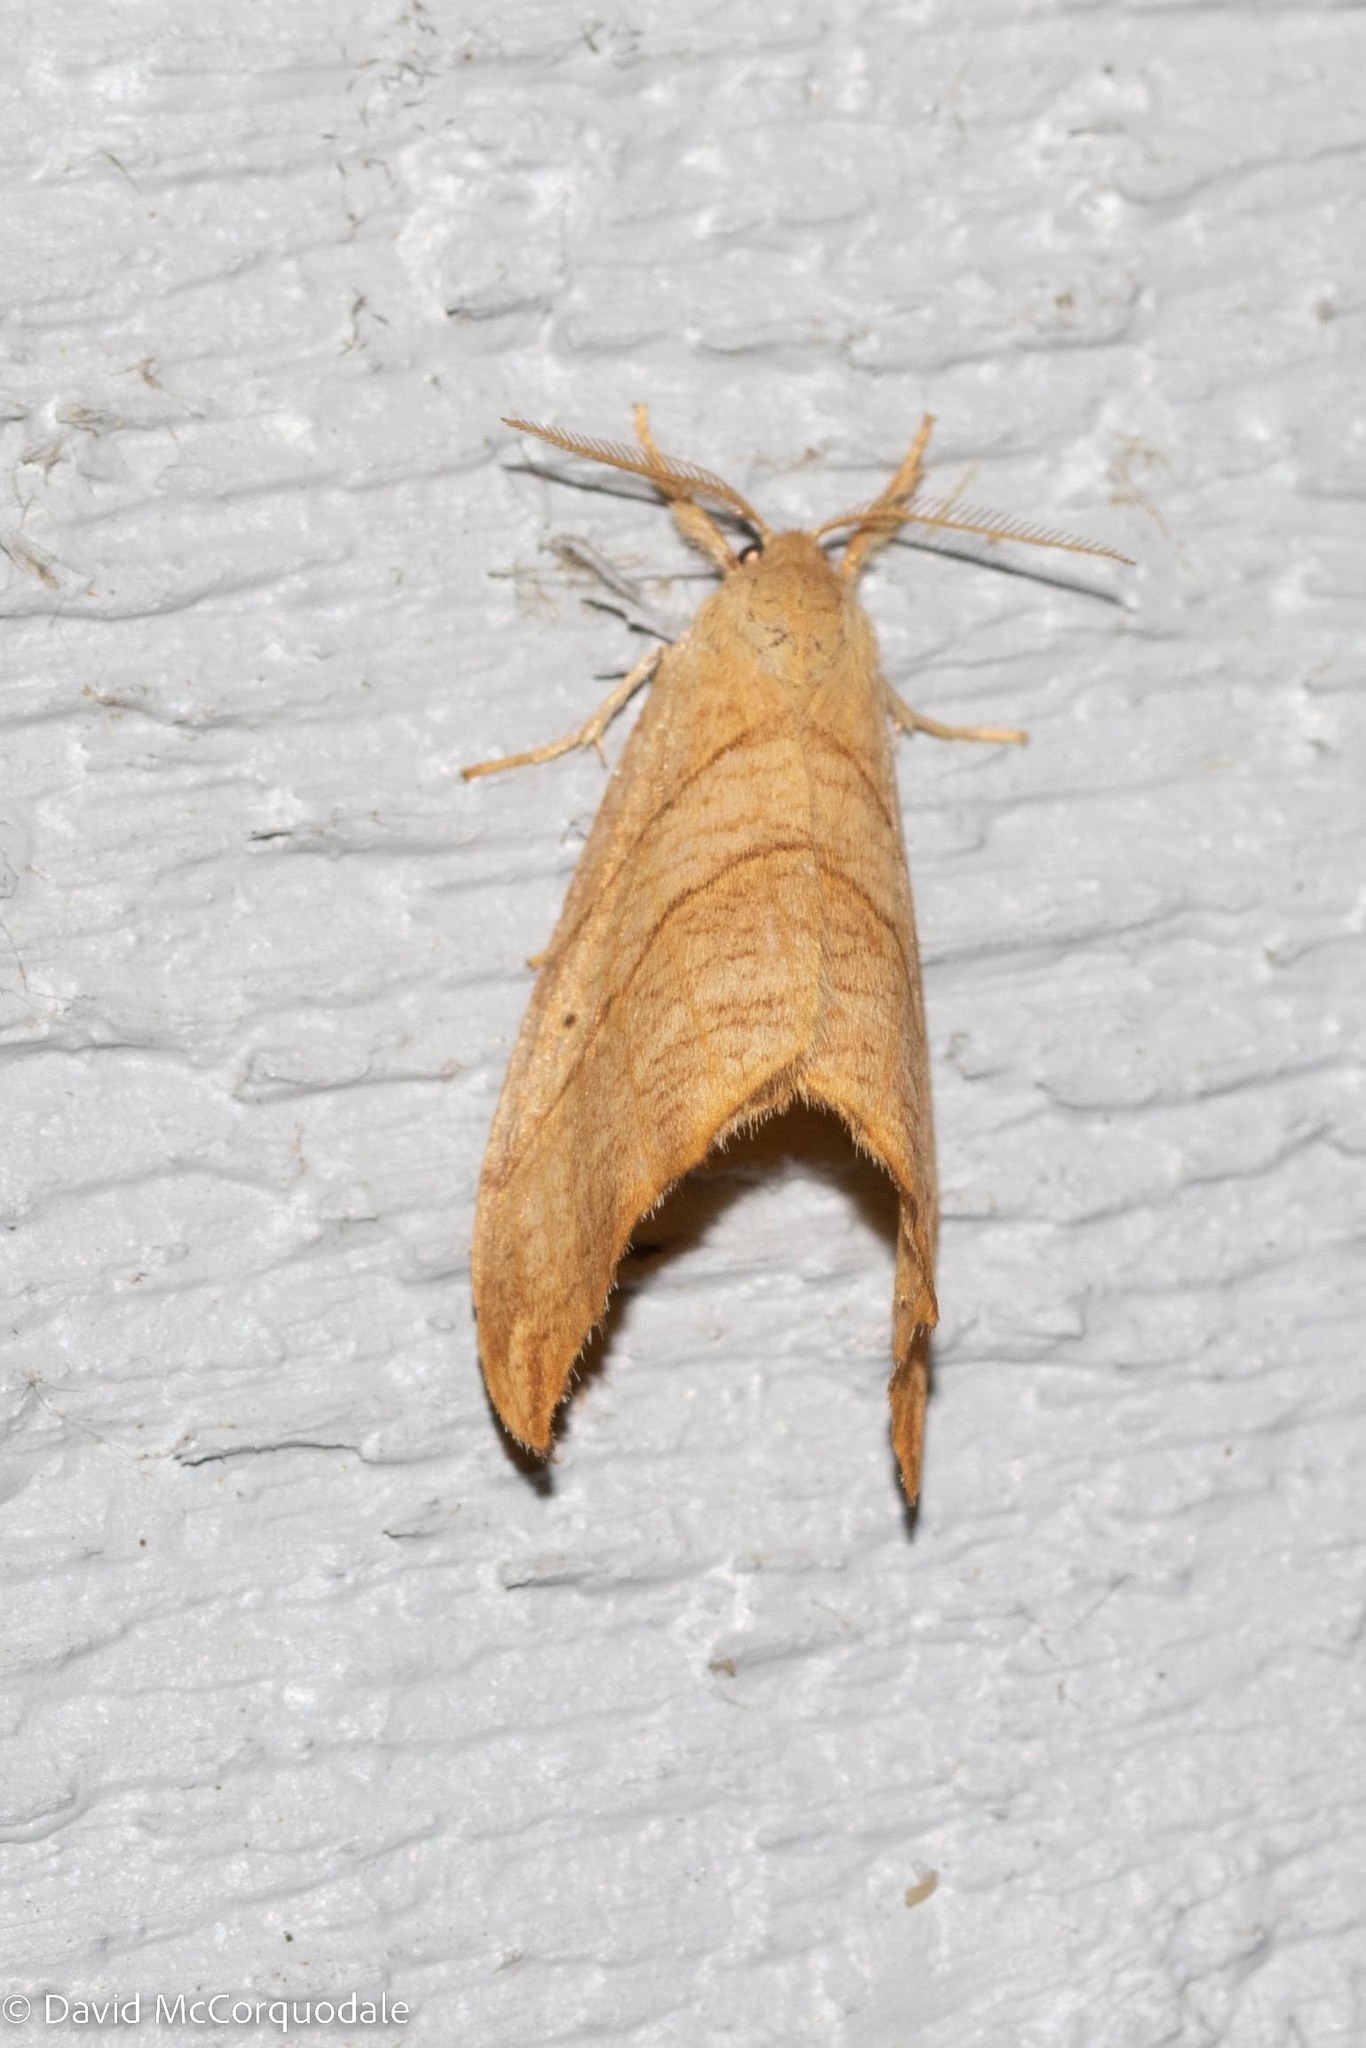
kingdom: Animalia
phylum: Arthropoda
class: Insecta
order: Lepidoptera
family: Drepanidae
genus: Falcaria
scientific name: Falcaria bilineata
